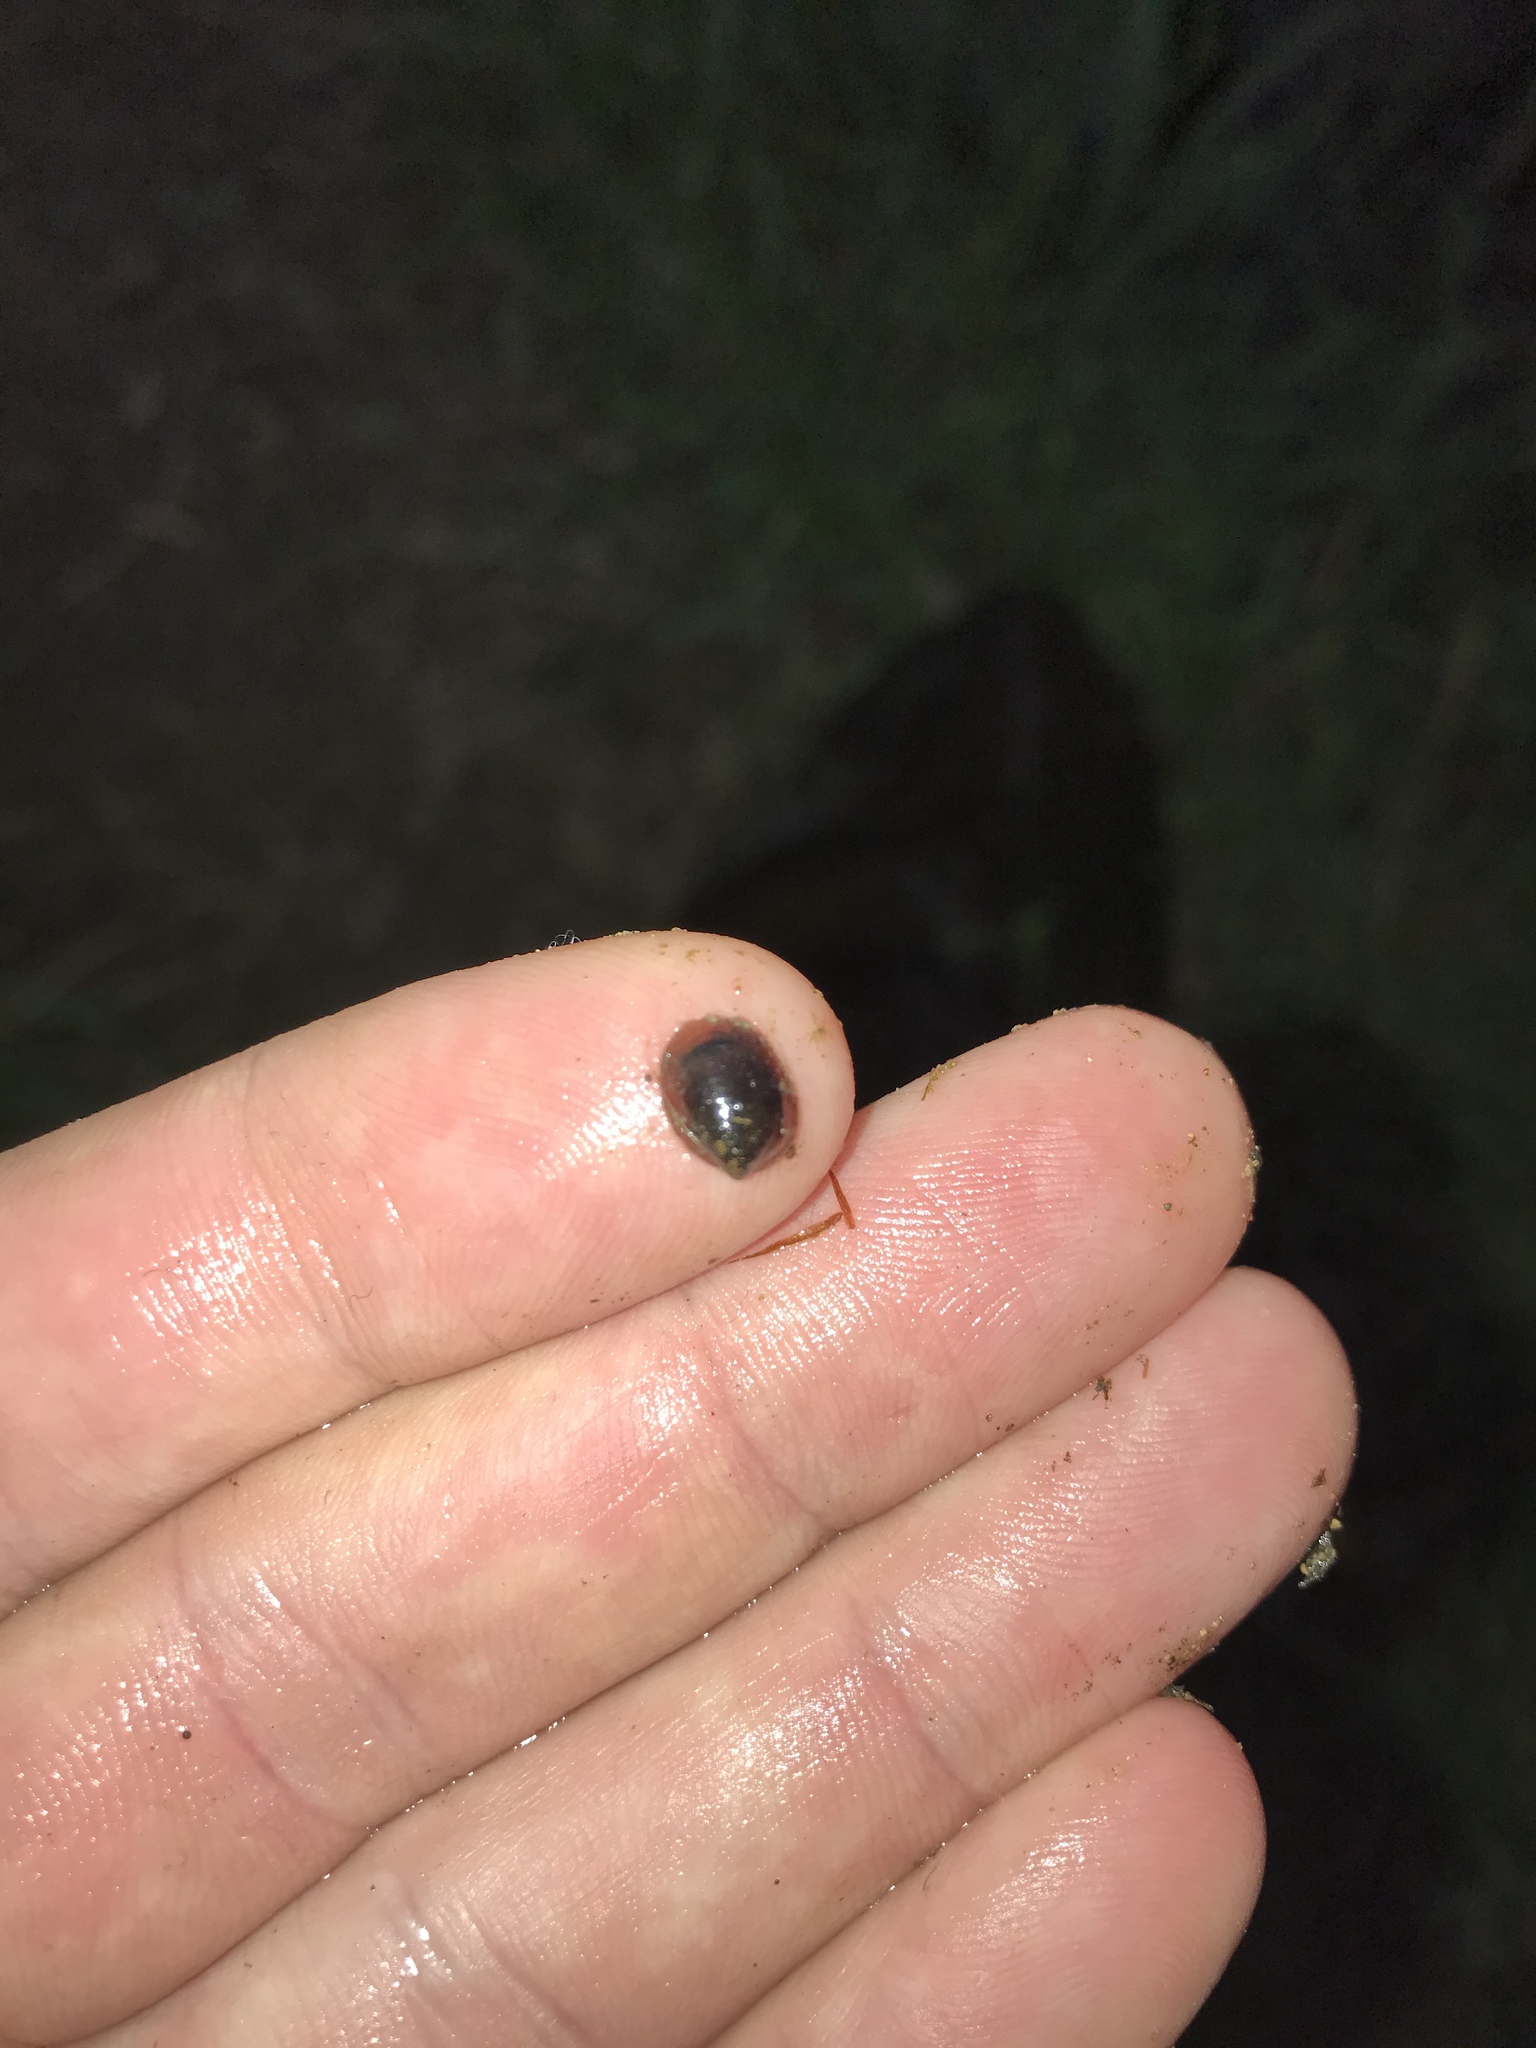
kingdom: Animalia
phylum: Mollusca
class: Gastropoda
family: Latiidae
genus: Latia
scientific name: Latia neritoides
